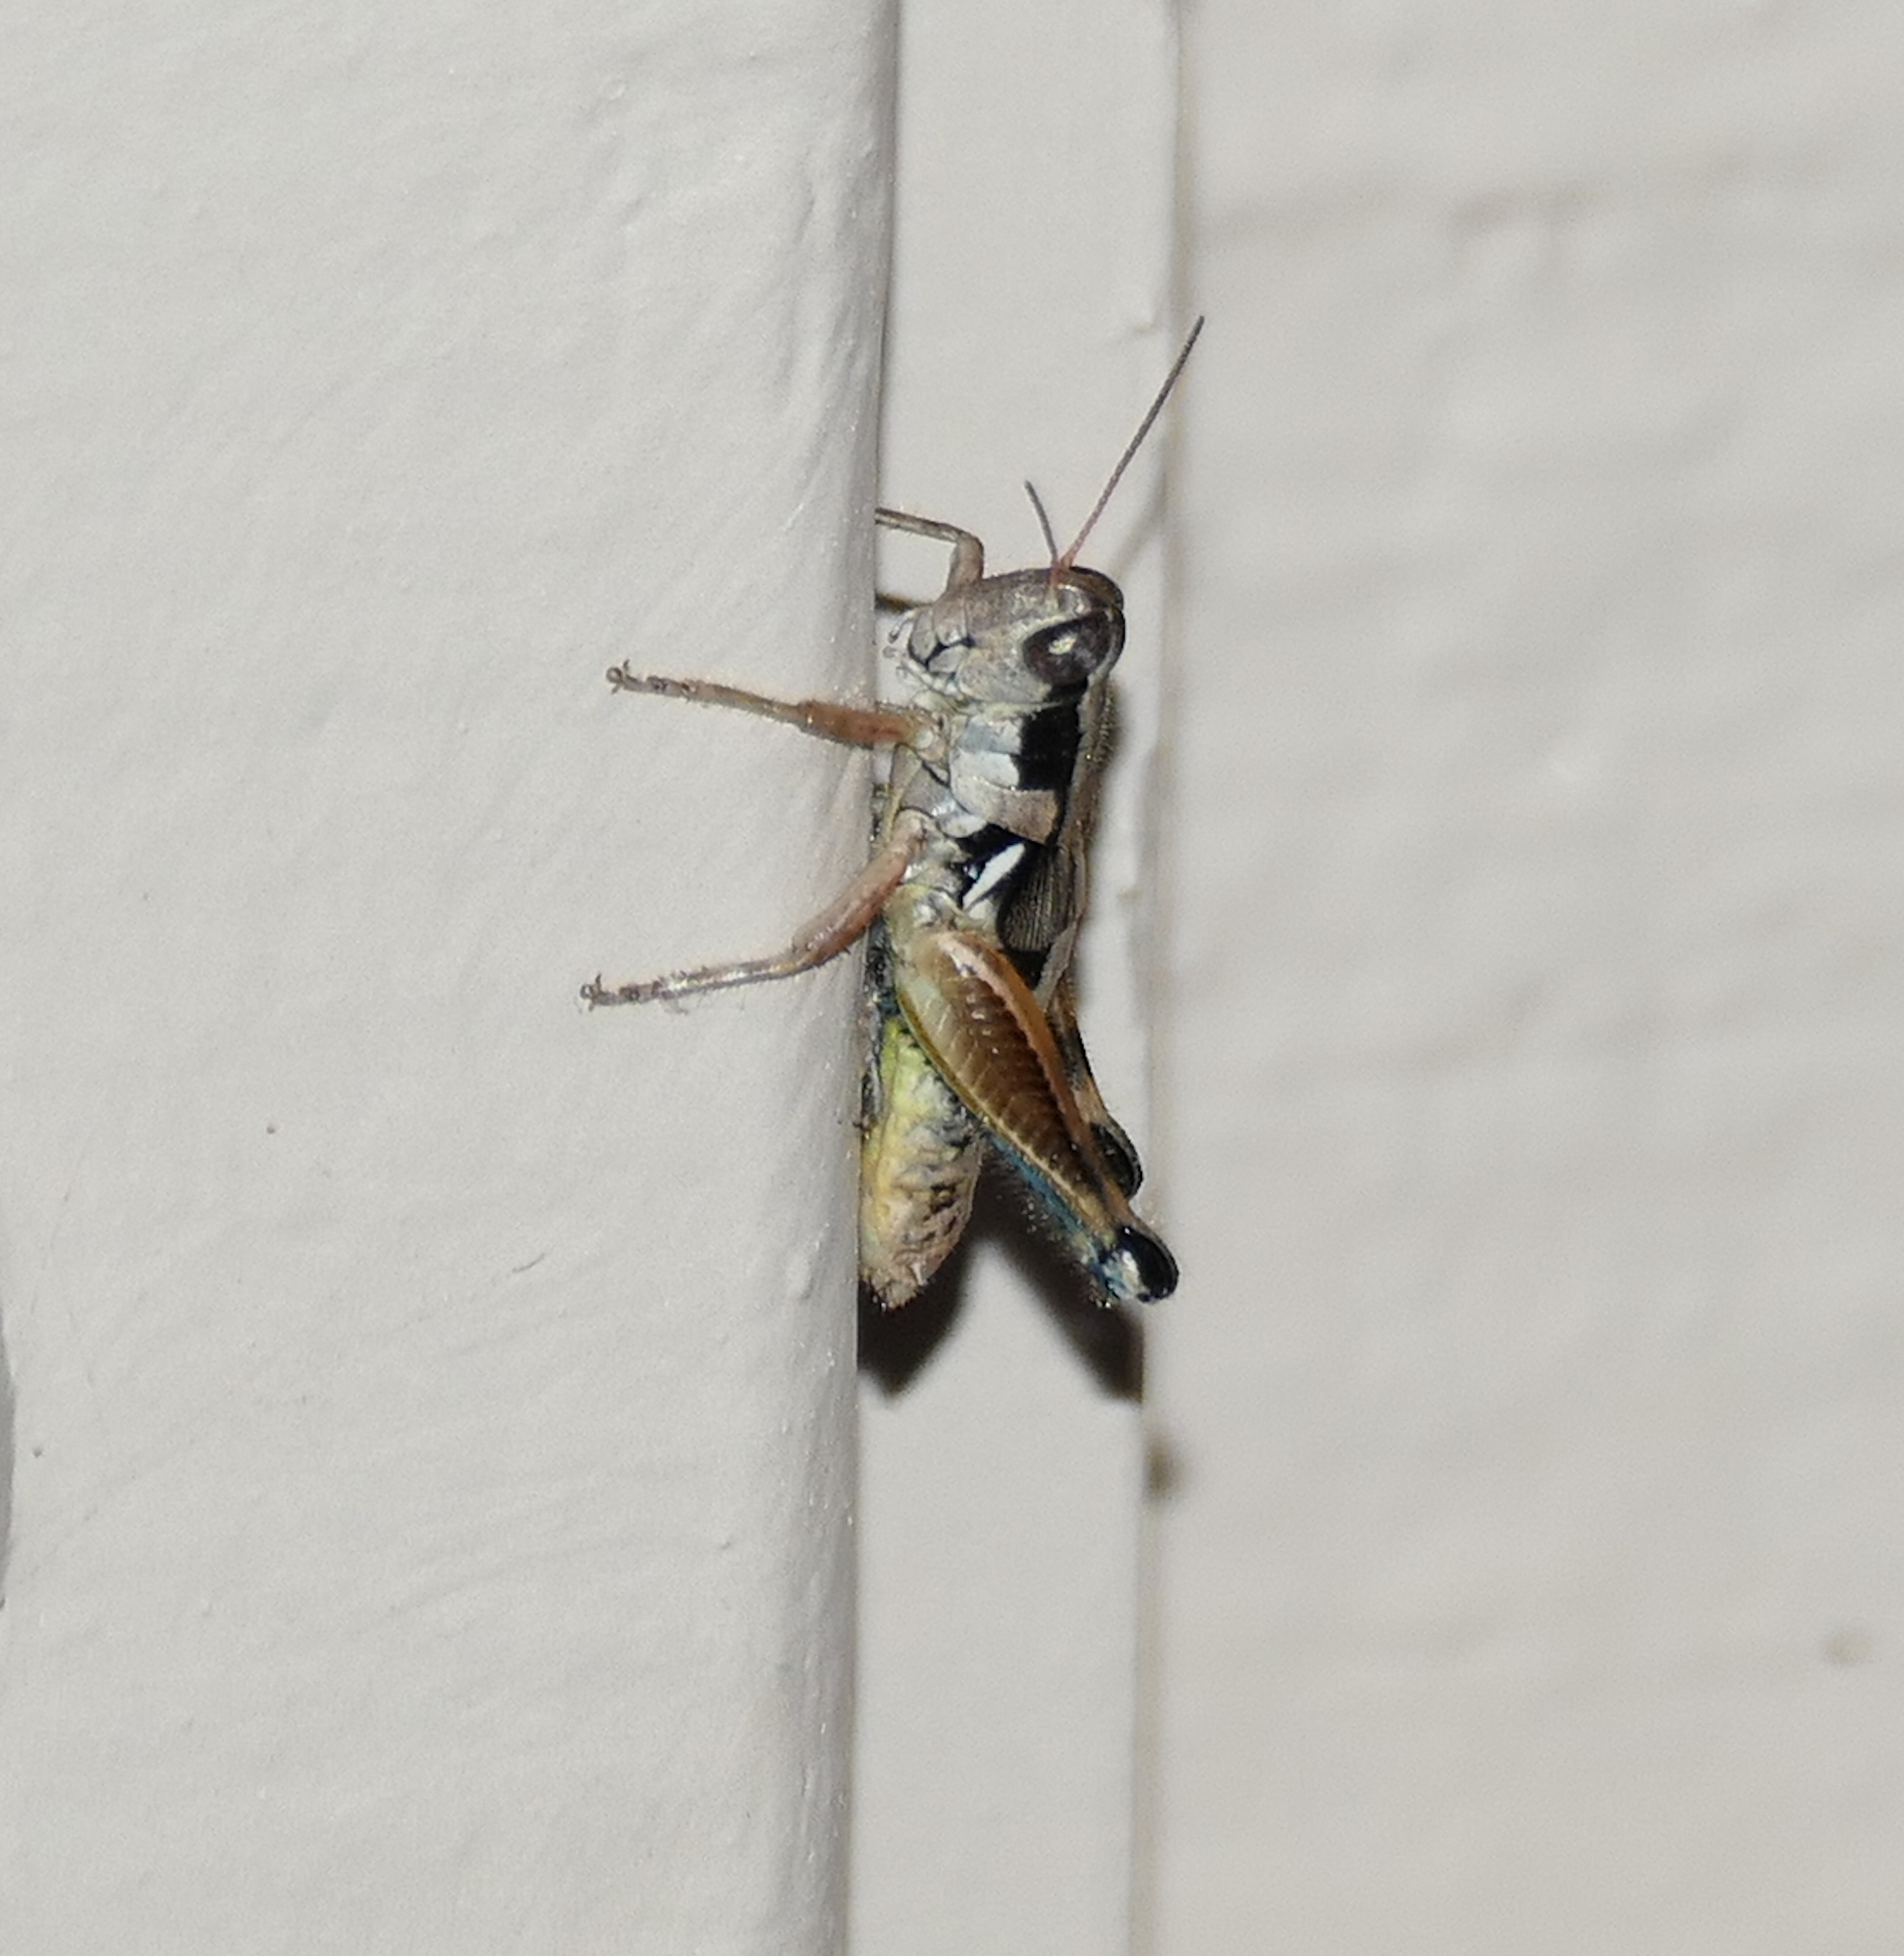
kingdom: Animalia
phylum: Arthropoda
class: Insecta
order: Orthoptera
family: Acrididae
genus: Melanoplus
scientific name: Melanoplus mogollona
